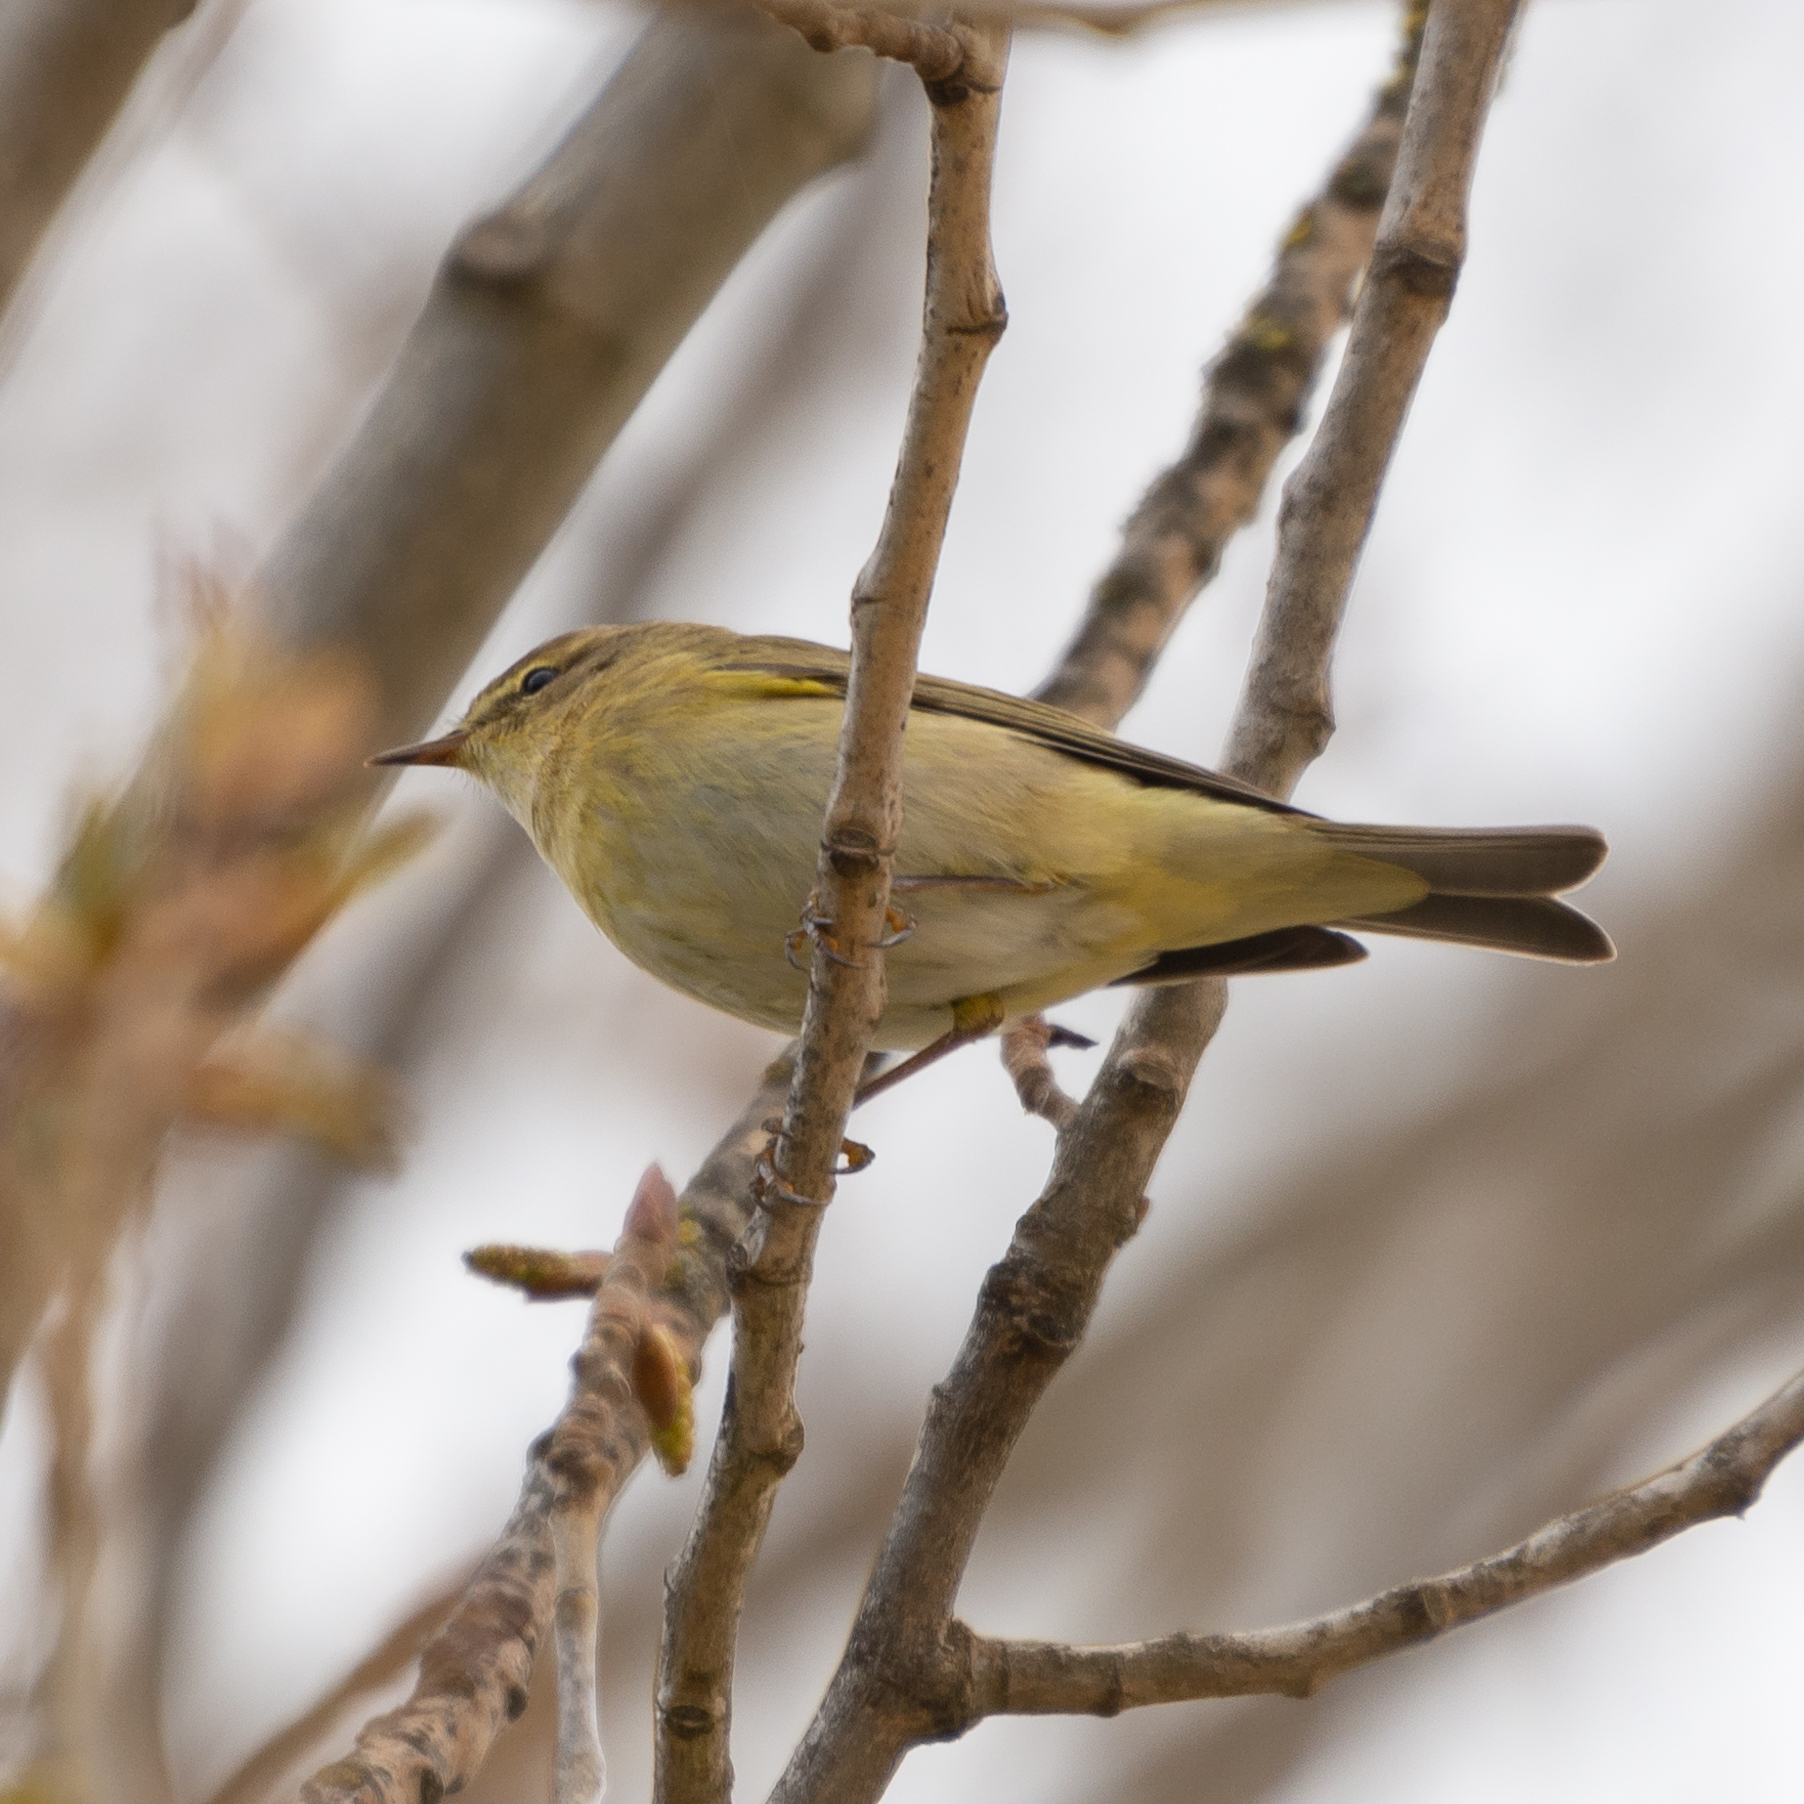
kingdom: Animalia
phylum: Chordata
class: Aves
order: Passeriformes
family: Phylloscopidae
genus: Phylloscopus
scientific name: Phylloscopus trochilus
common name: Willow warbler
